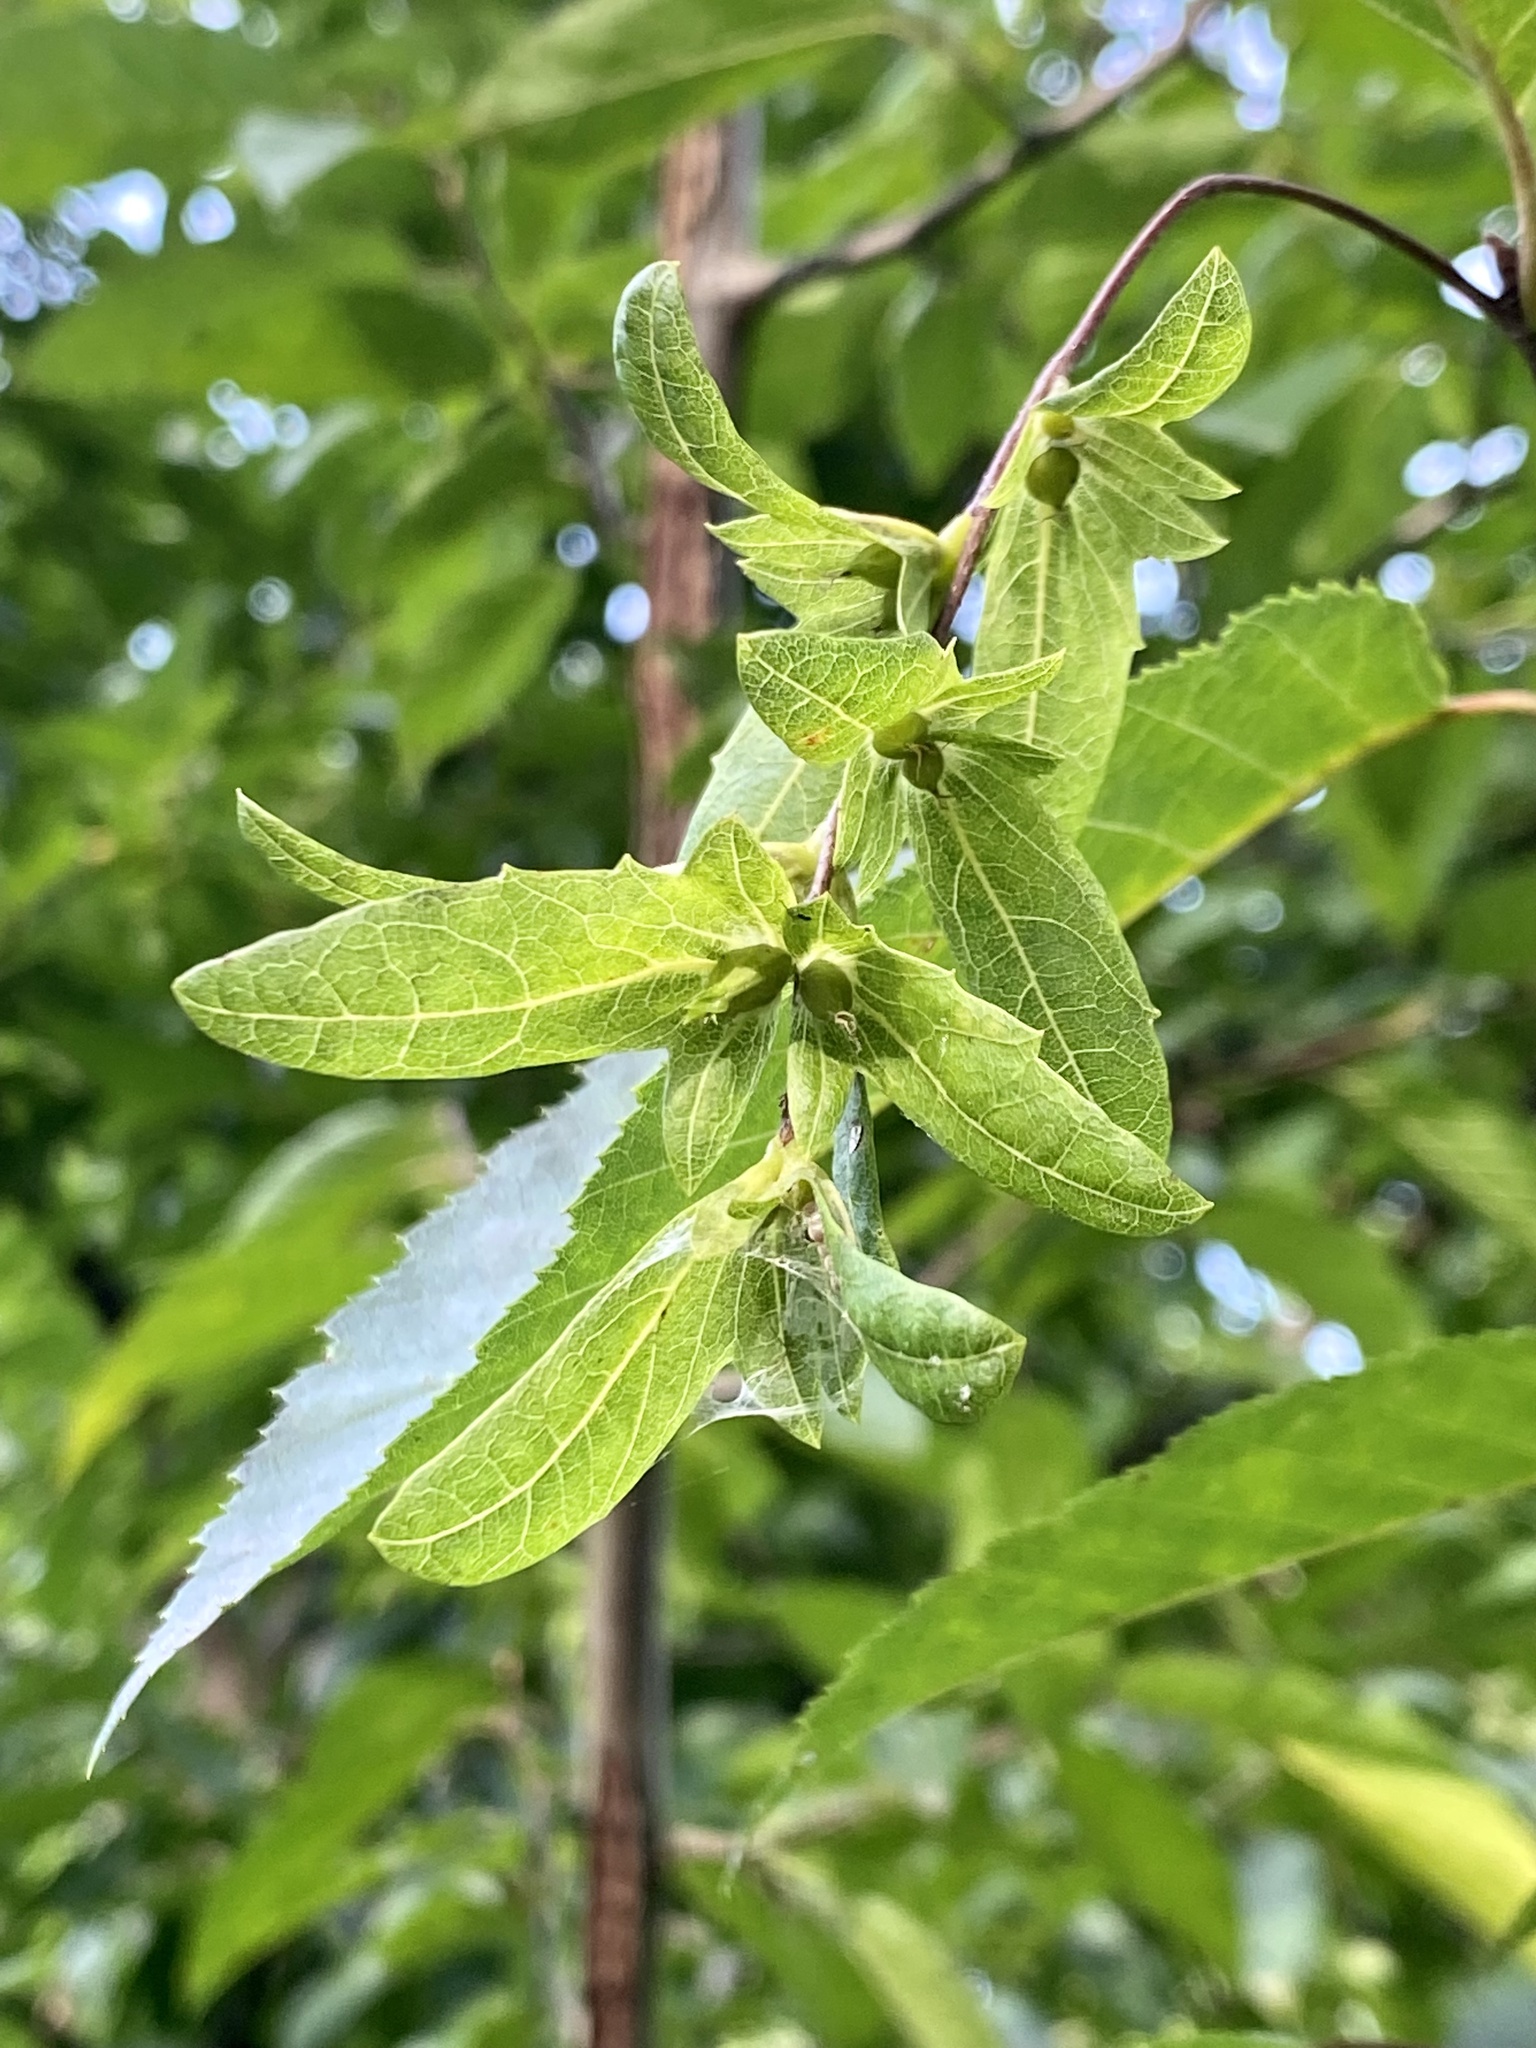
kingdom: Plantae
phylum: Tracheophyta
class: Magnoliopsida
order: Fagales
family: Betulaceae
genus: Carpinus
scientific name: Carpinus caroliniana
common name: American hornbeam
